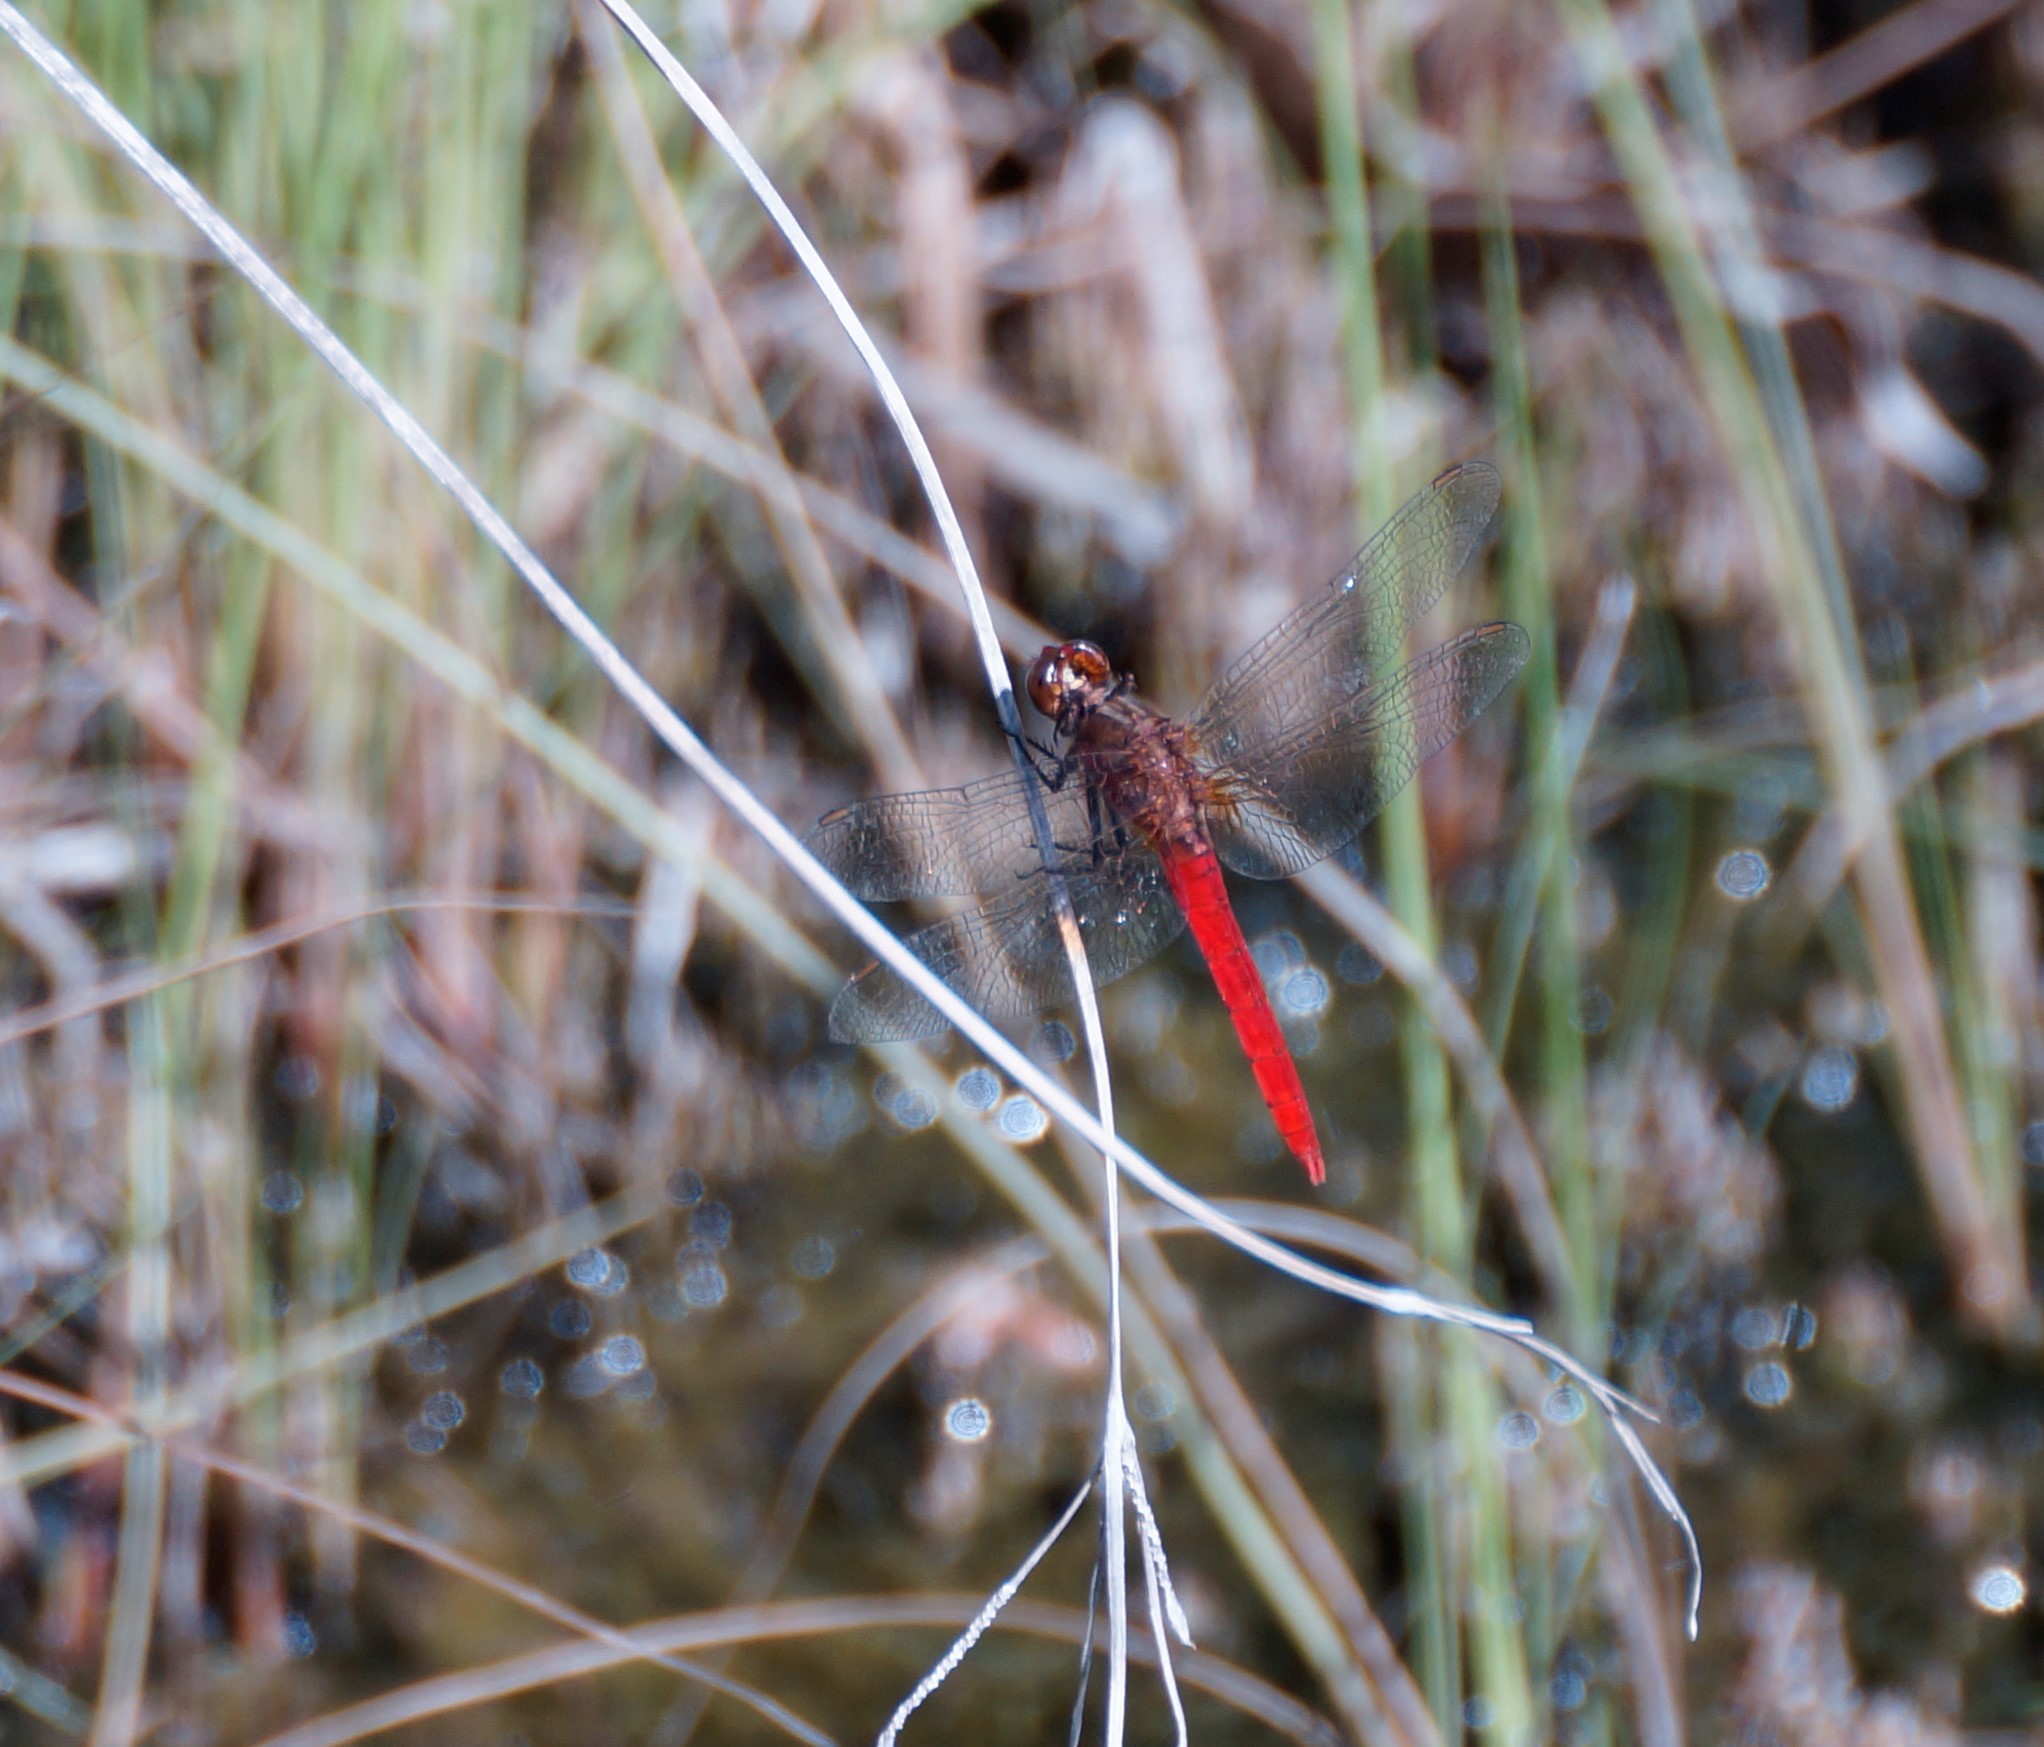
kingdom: Animalia
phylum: Arthropoda
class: Insecta
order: Odonata
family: Libellulidae
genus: Rhodothemis
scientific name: Rhodothemis lieftincki
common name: Red arrow
